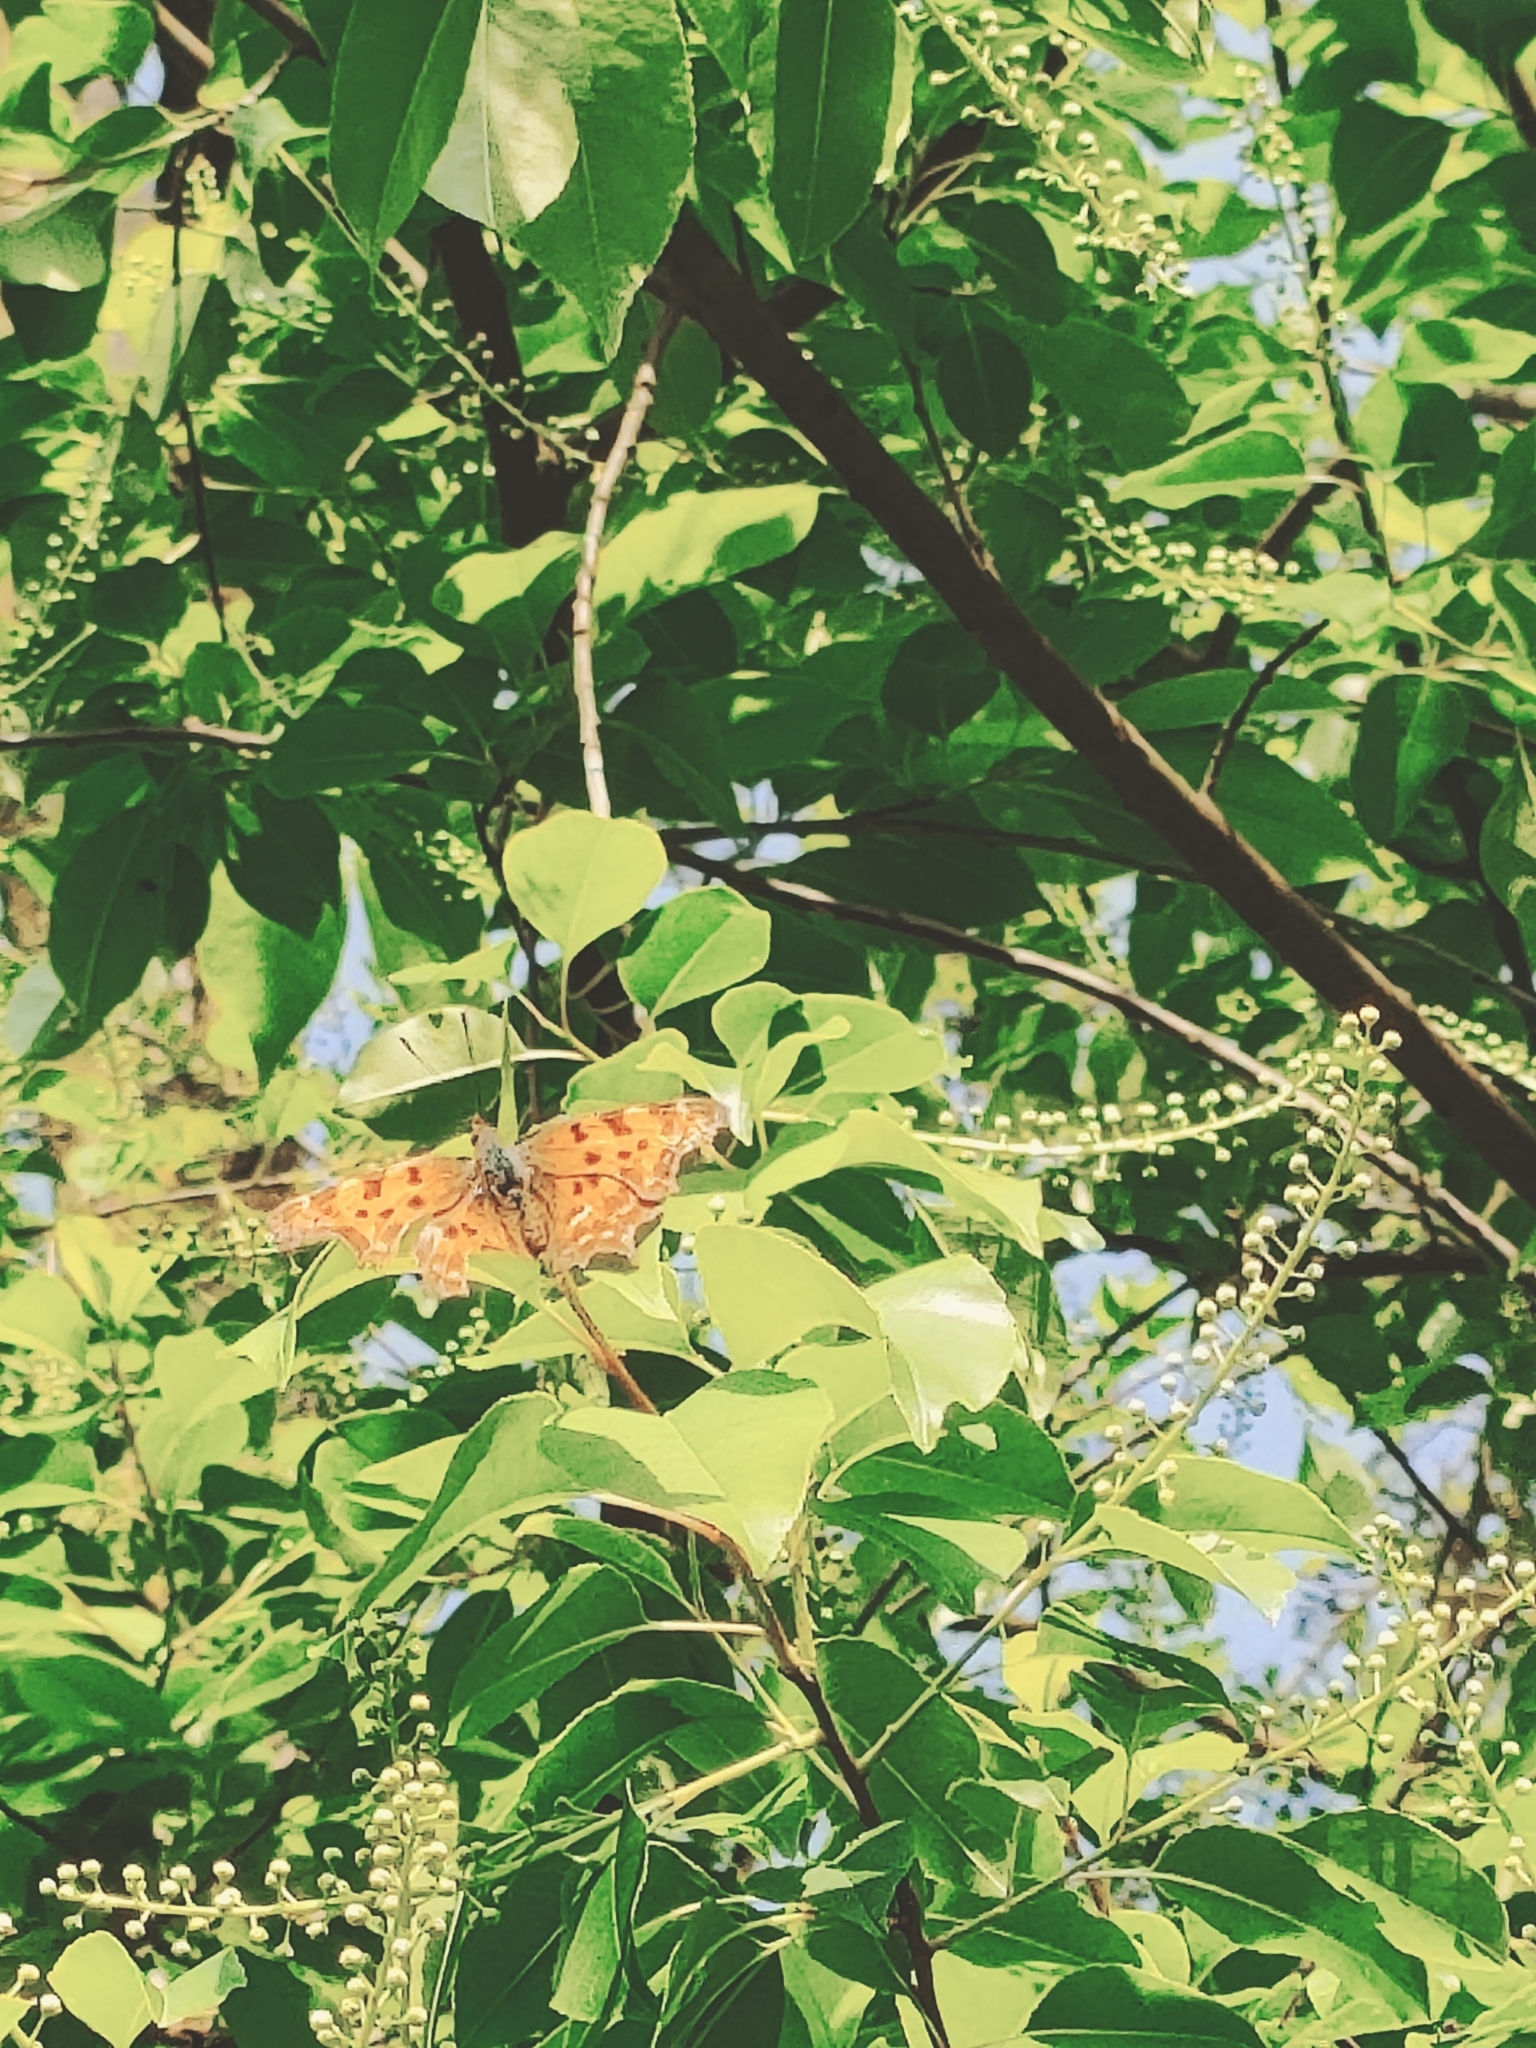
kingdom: Animalia
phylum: Arthropoda
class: Insecta
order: Lepidoptera
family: Nymphalidae
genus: Polygonia
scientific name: Polygonia c-album
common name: Comma
